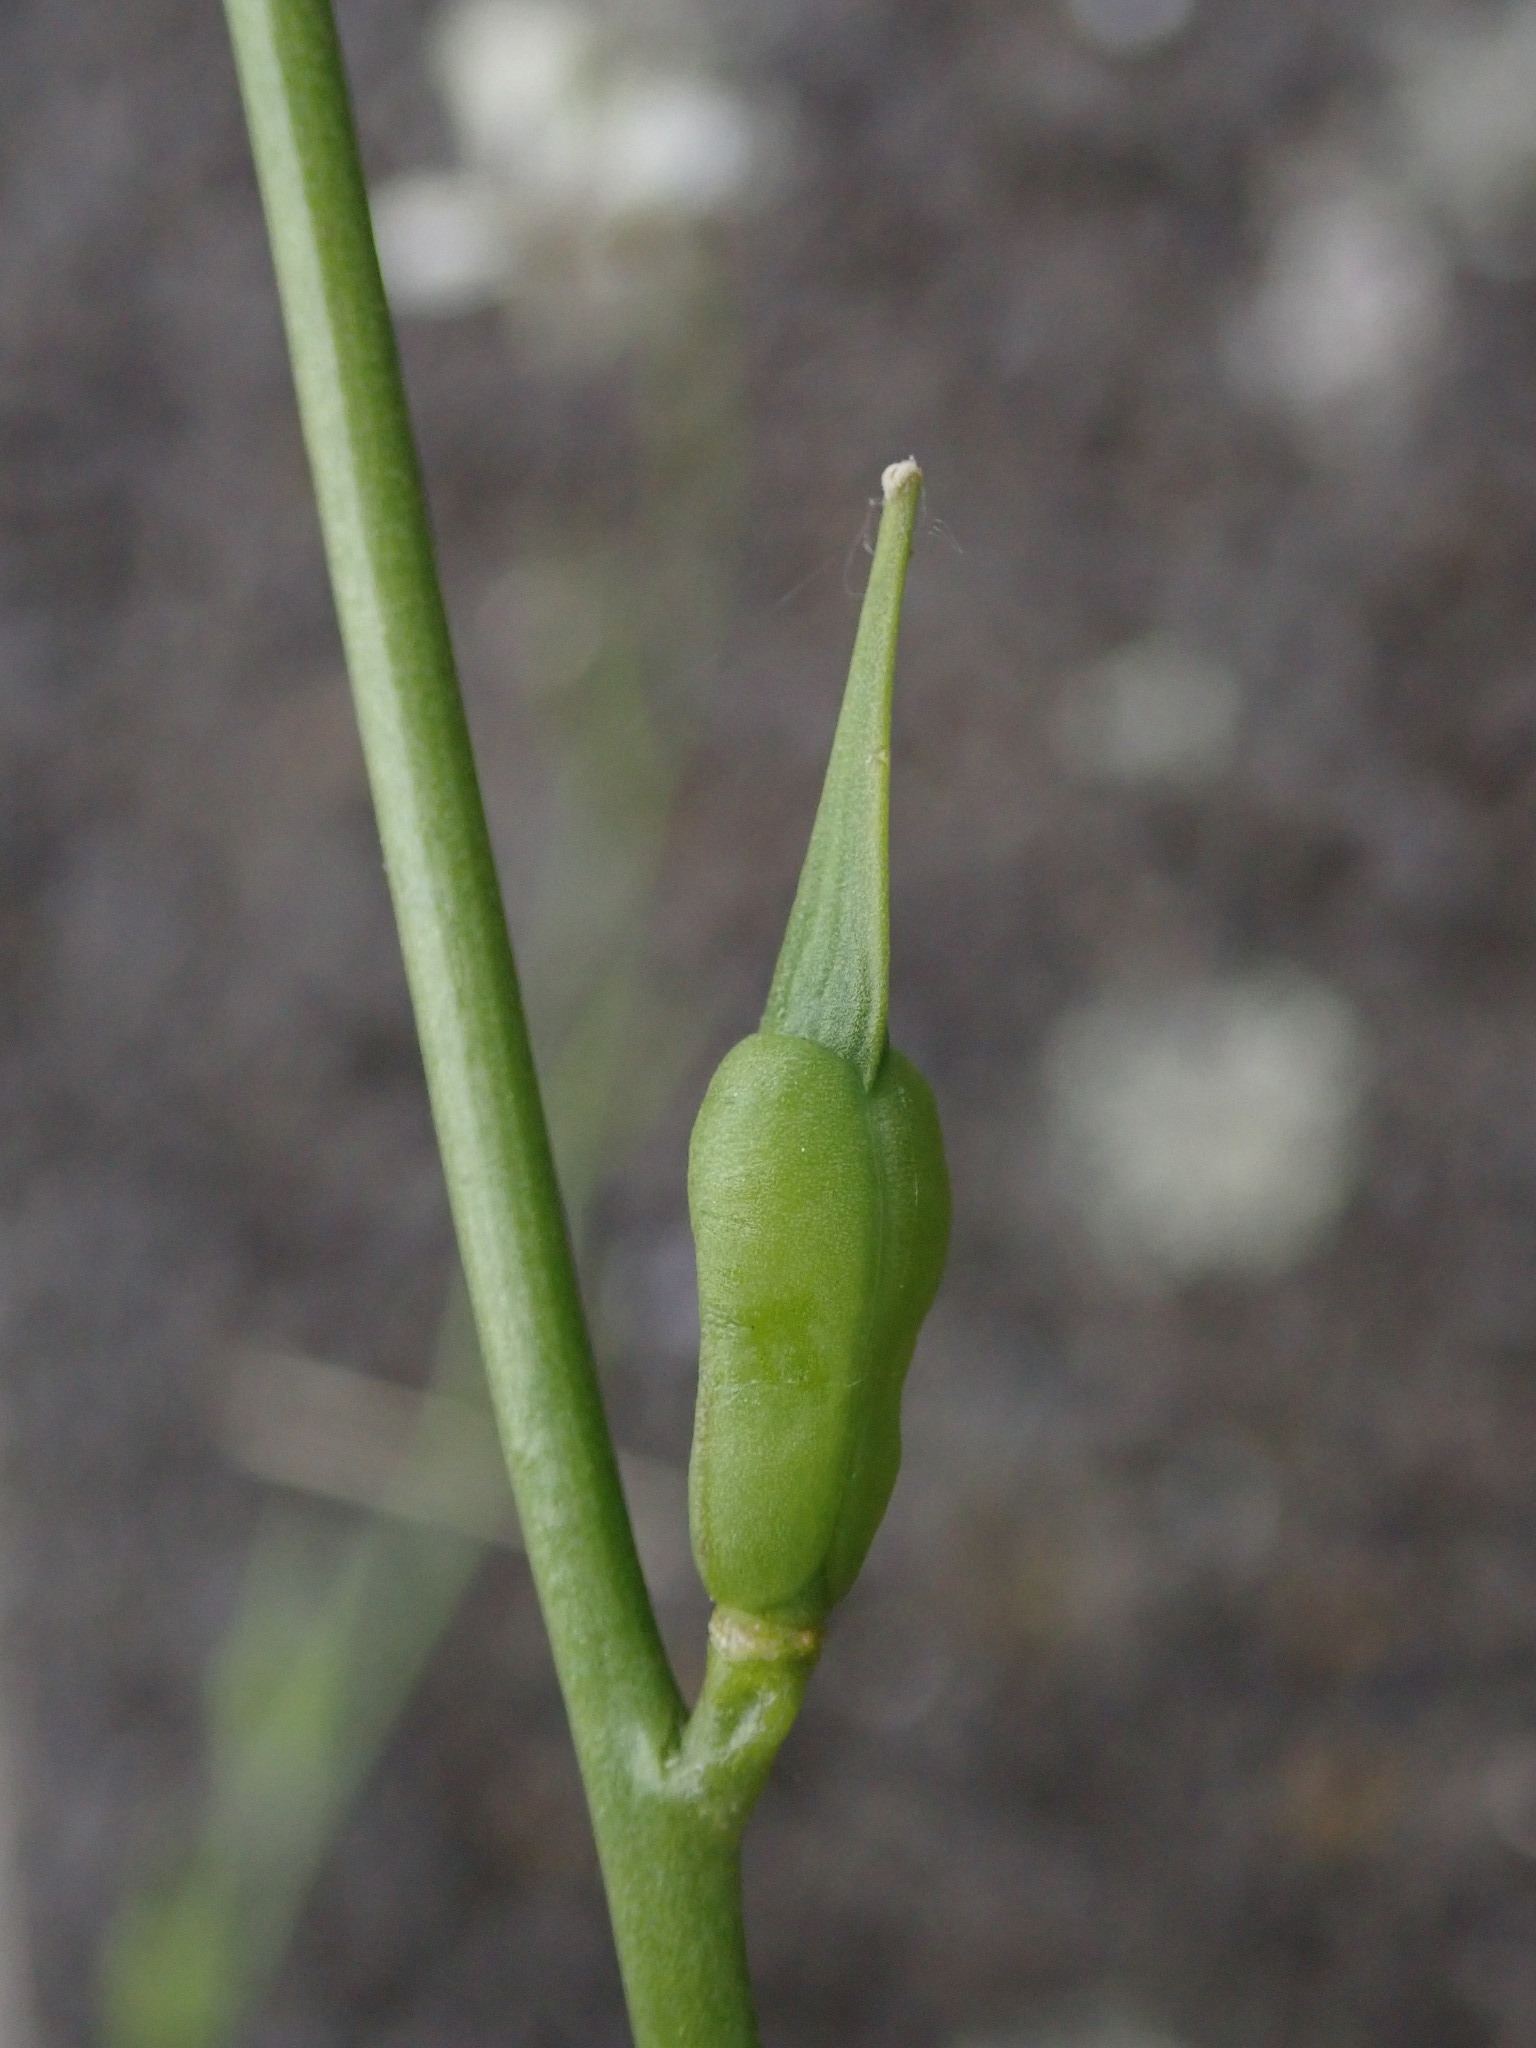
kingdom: Plantae
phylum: Tracheophyta
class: Magnoliopsida
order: Brassicales
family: Brassicaceae
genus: Eruca
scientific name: Eruca vesicaria
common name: Garden rocket
